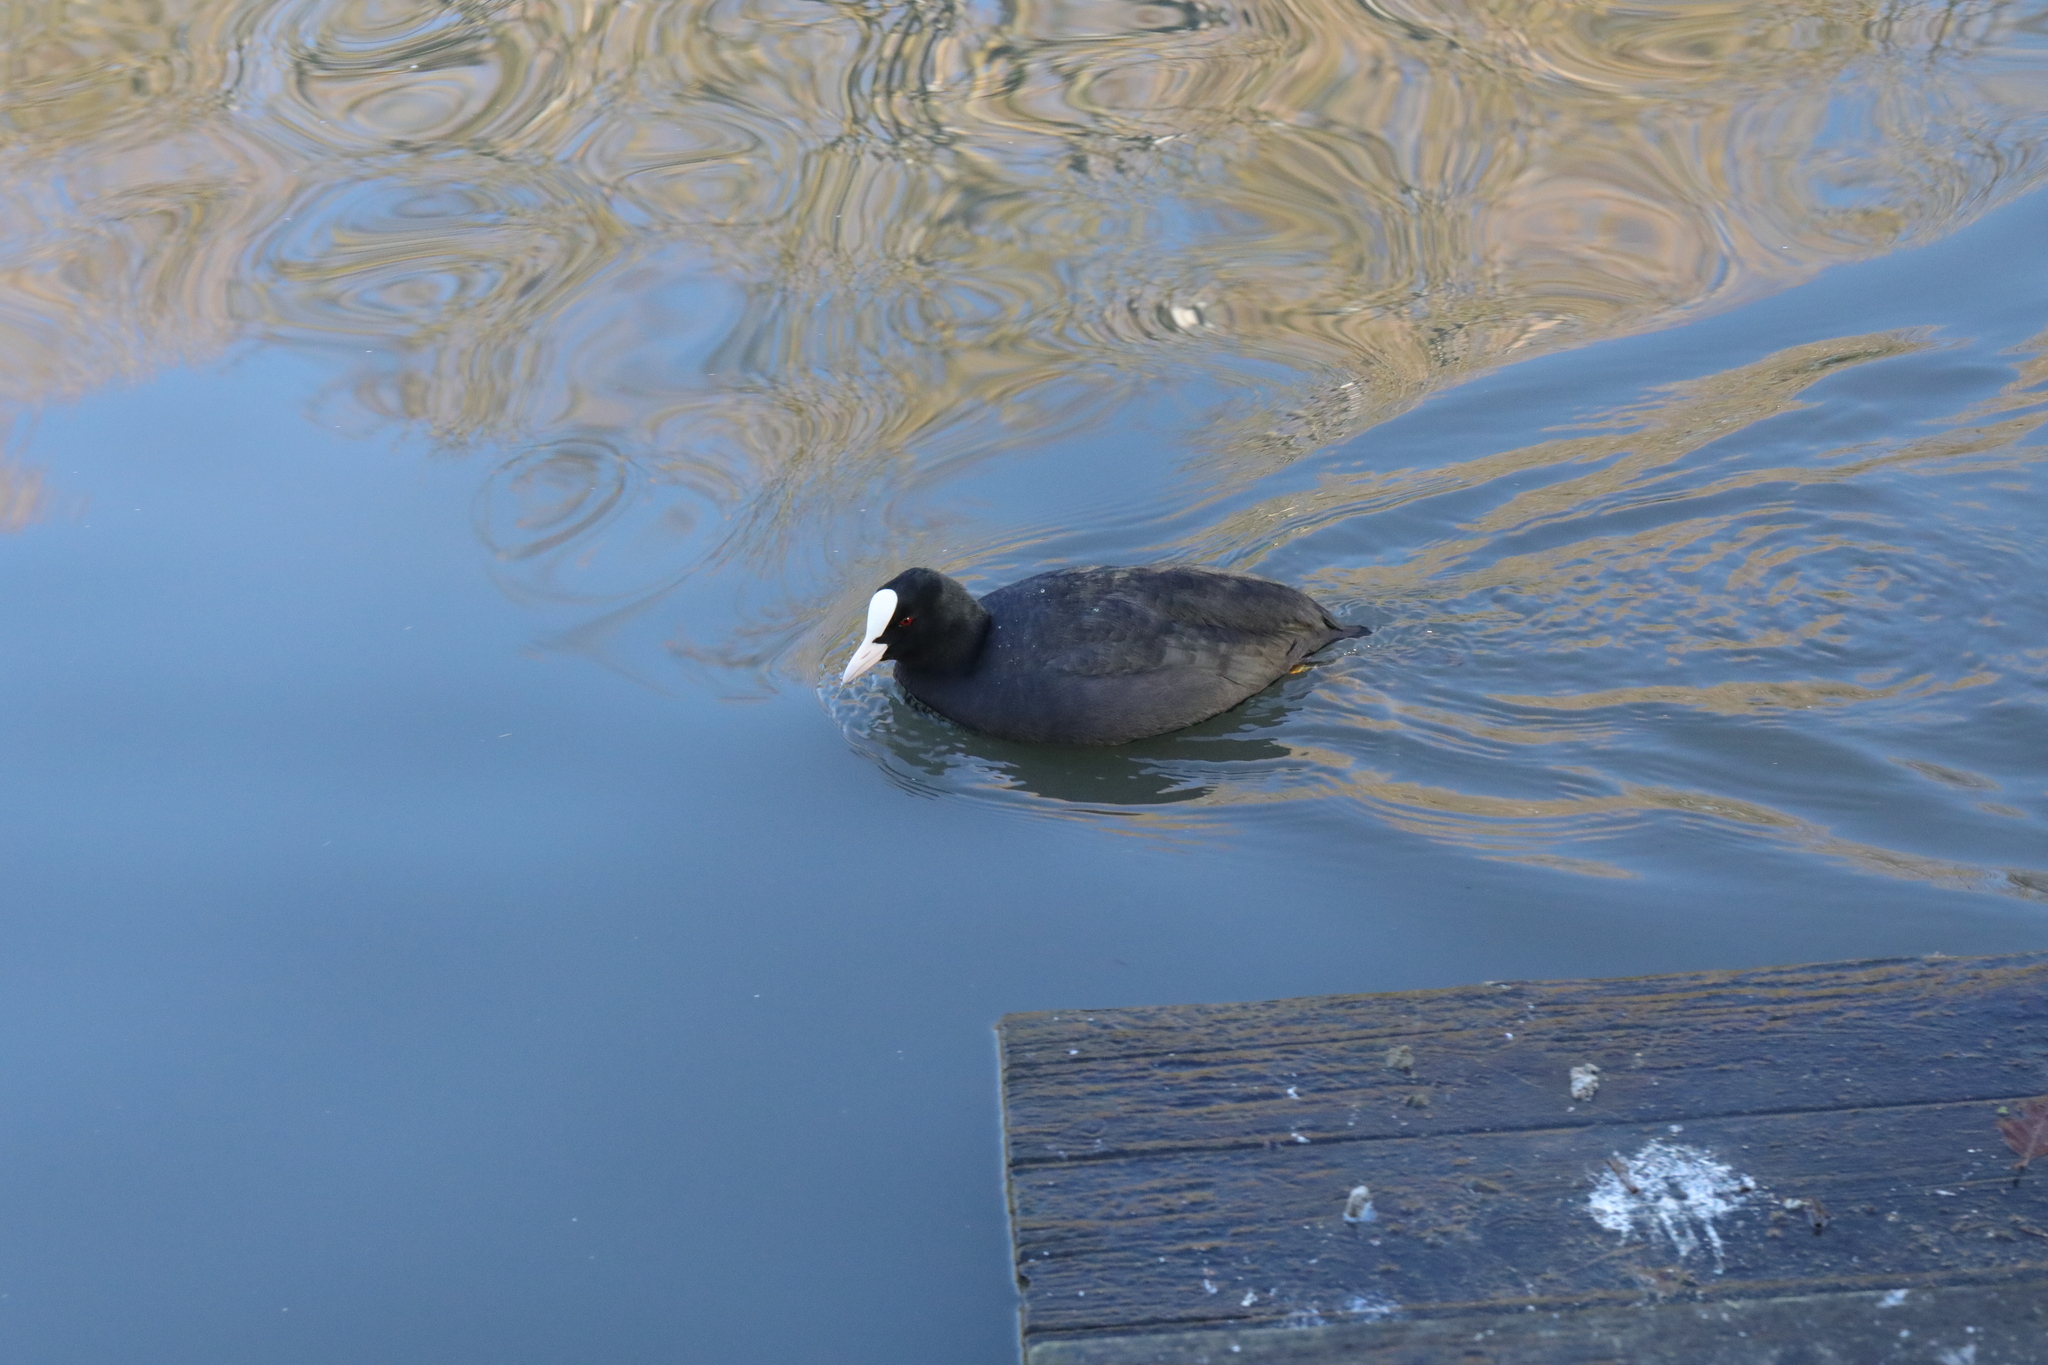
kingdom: Animalia
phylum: Chordata
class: Aves
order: Gruiformes
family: Rallidae
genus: Fulica
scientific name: Fulica atra
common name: Eurasian coot
